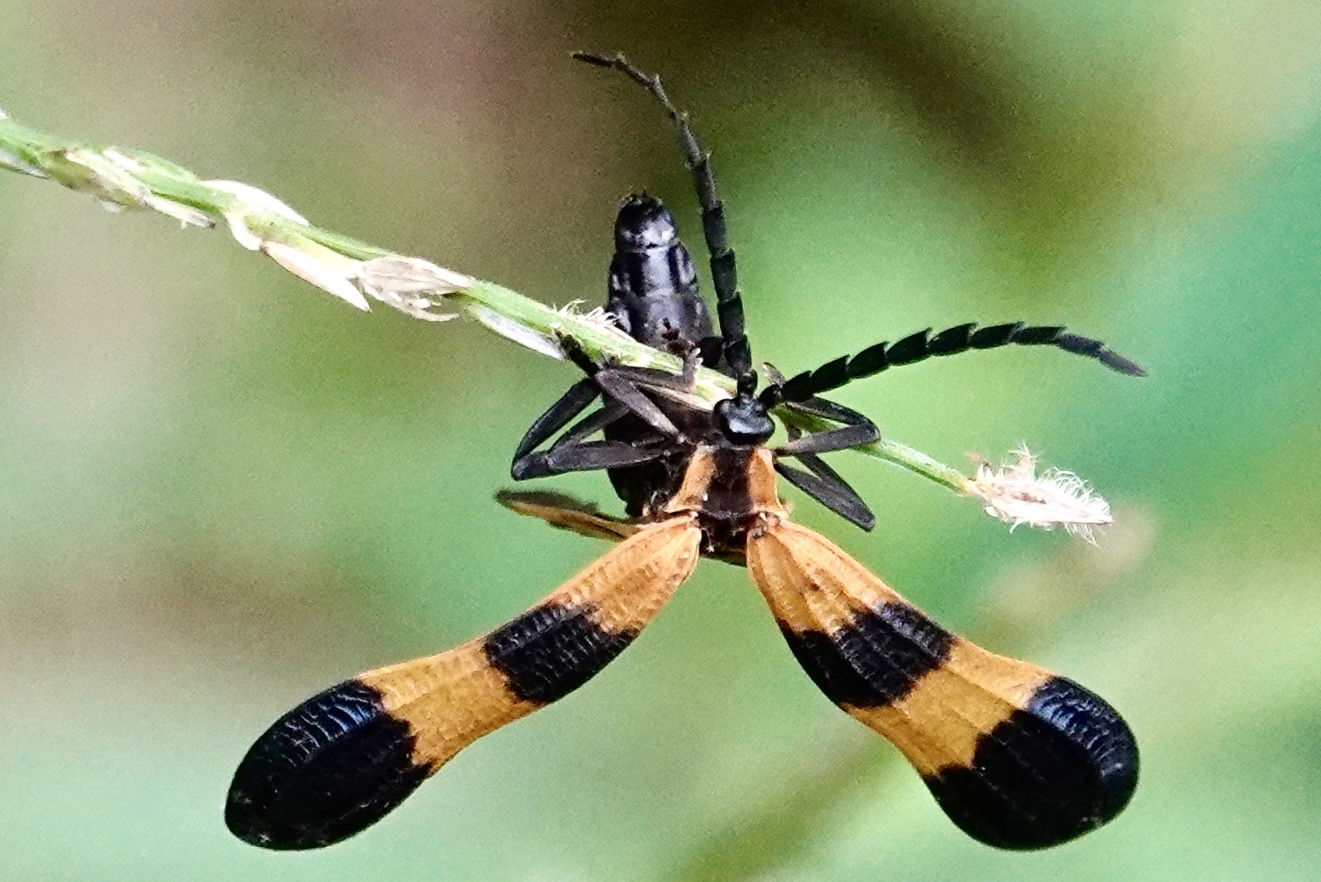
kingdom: Animalia
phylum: Arthropoda
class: Insecta
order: Coleoptera
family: Lycidae
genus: Calopteron
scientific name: Calopteron terminale
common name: End band net-winged beetle
